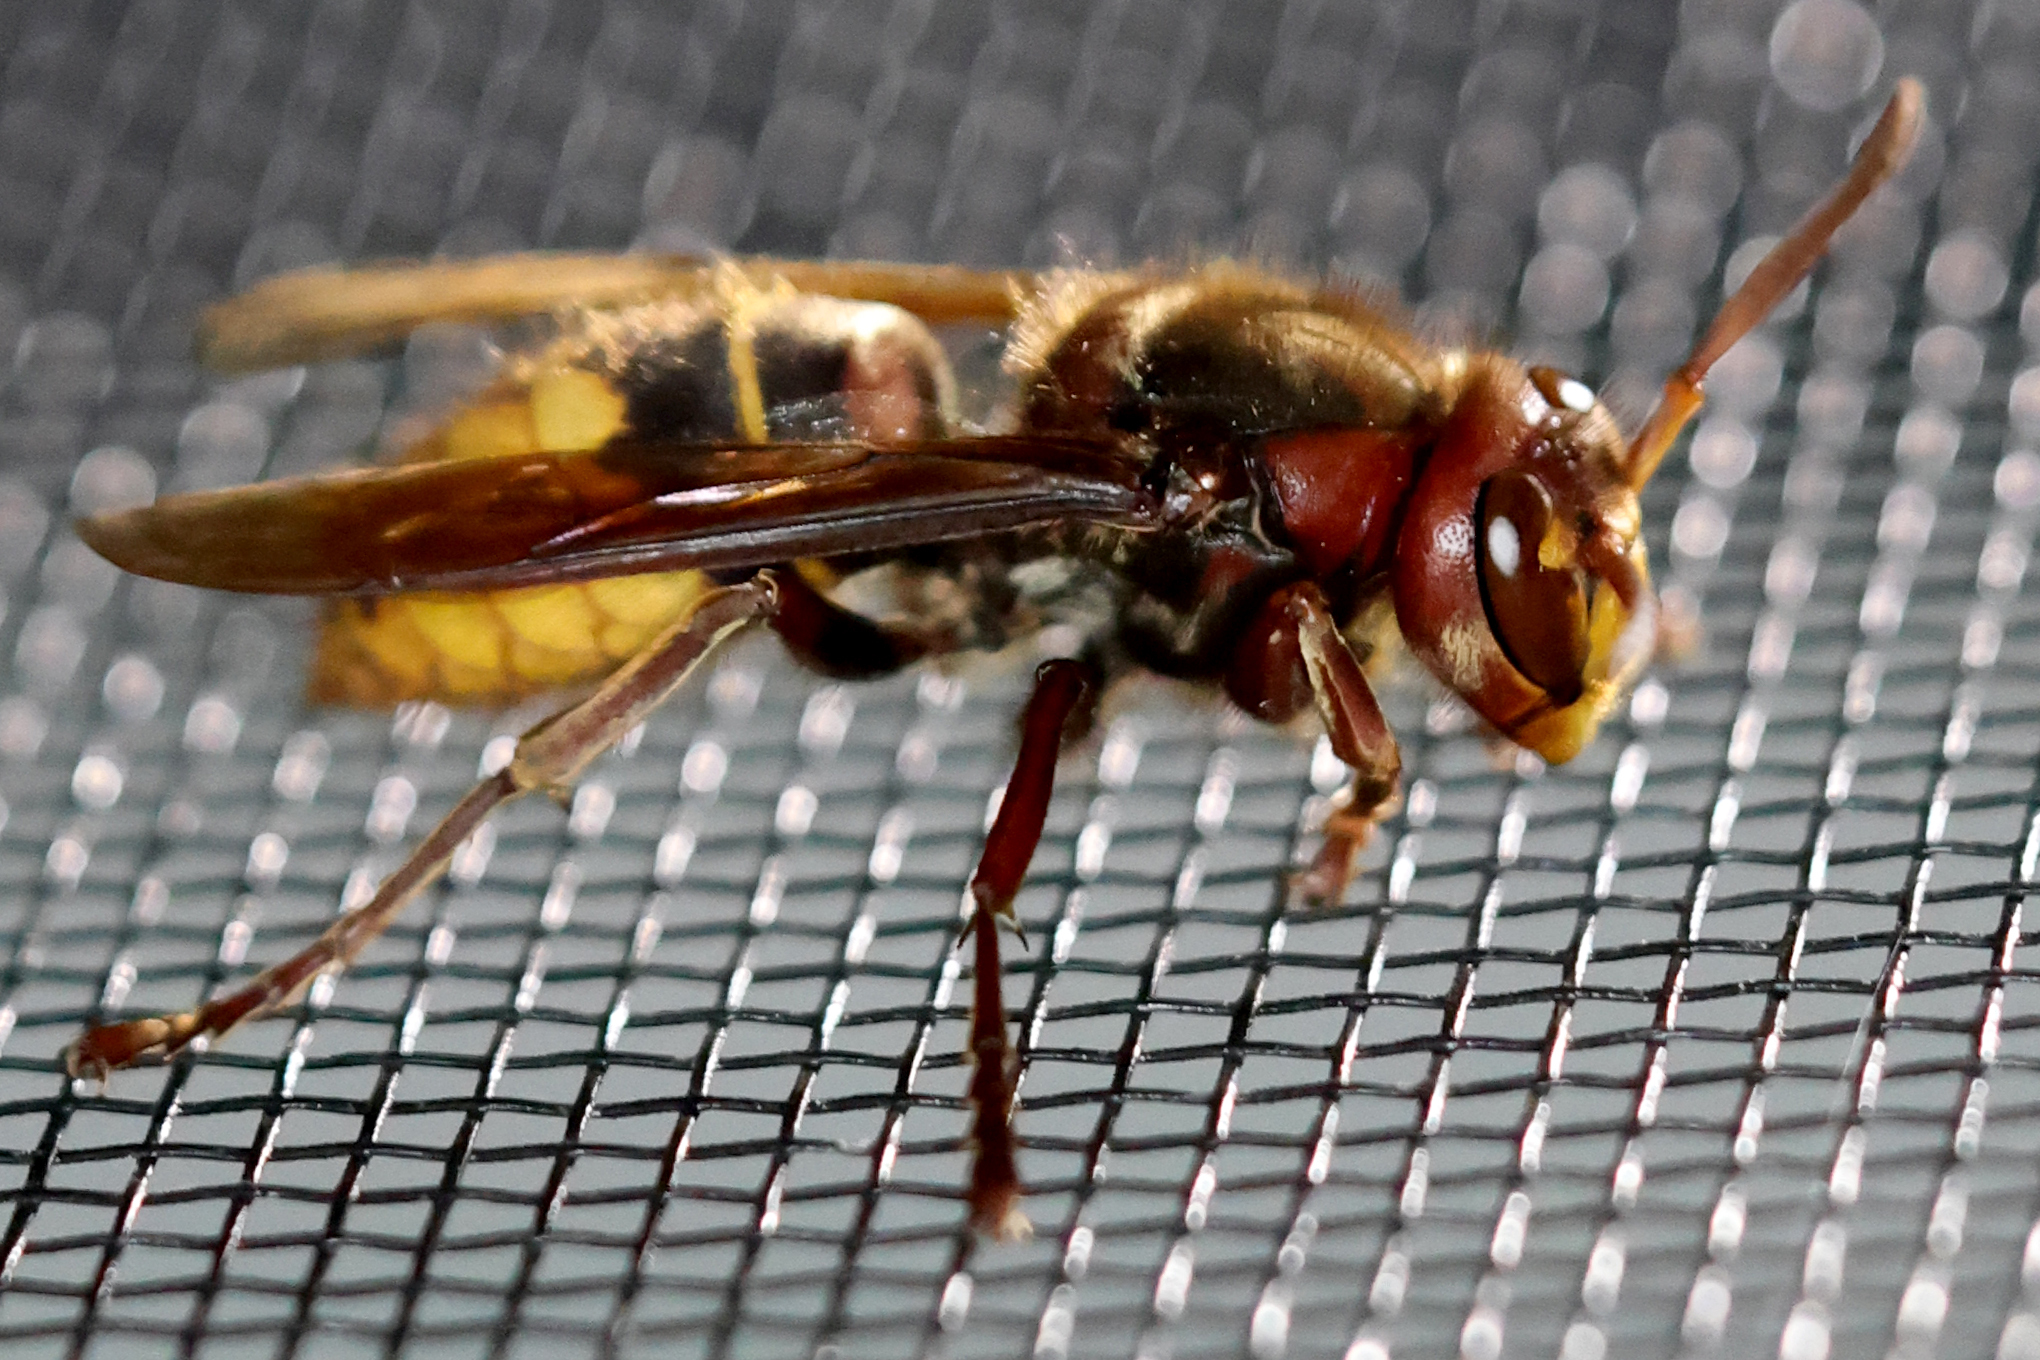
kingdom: Animalia
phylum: Arthropoda
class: Insecta
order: Hymenoptera
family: Vespidae
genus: Vespa
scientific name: Vespa crabro
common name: Hornet
